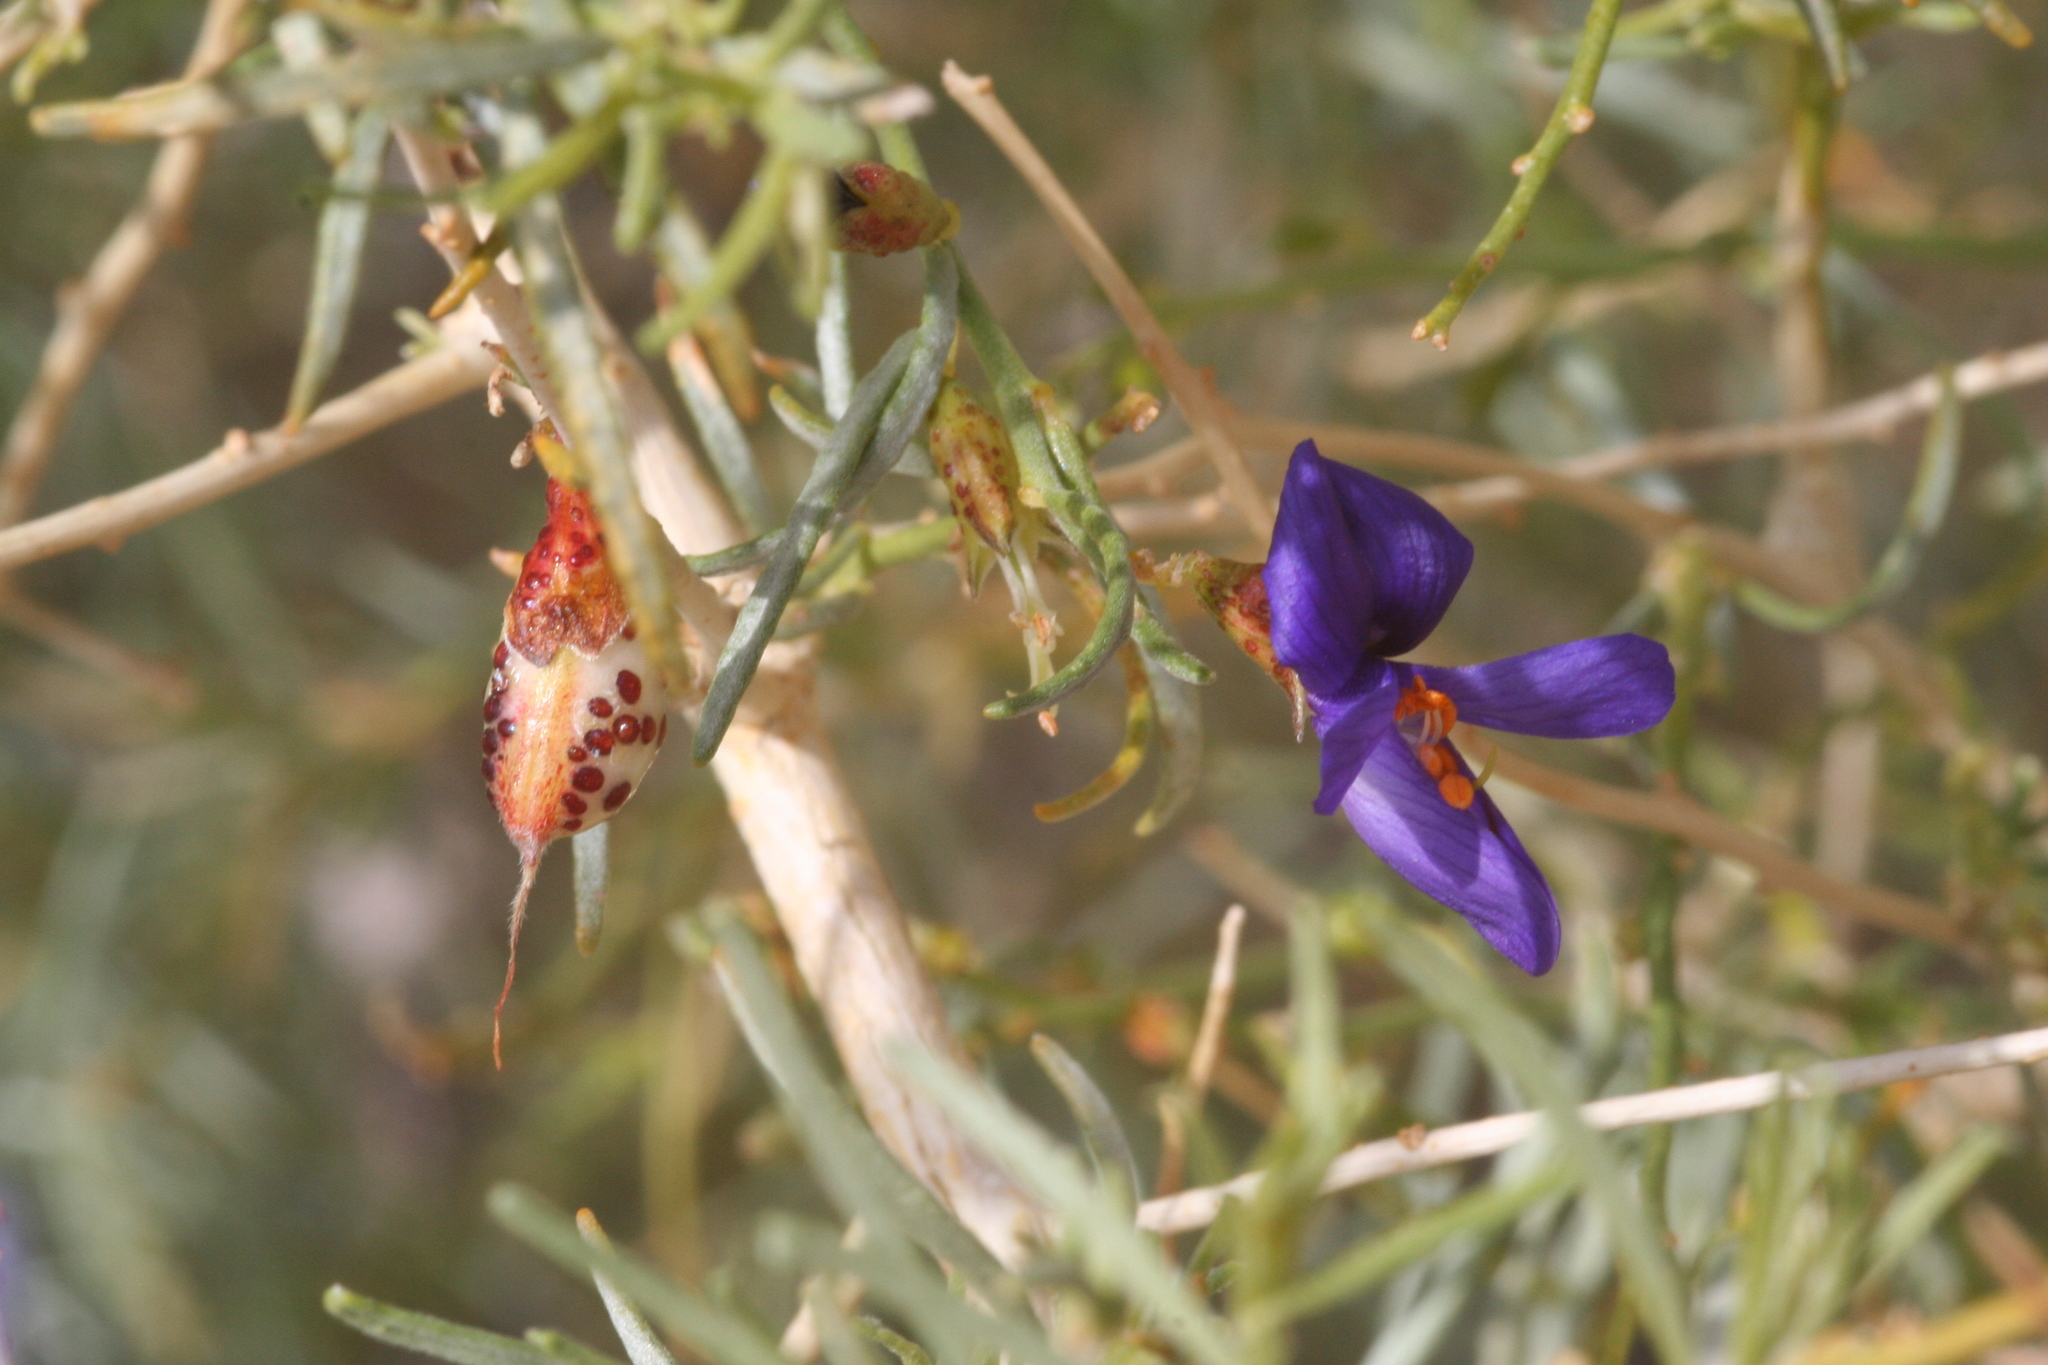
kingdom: Plantae
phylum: Tracheophyta
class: Magnoliopsida
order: Fabales
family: Fabaceae
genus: Psorothamnus
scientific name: Psorothamnus schottii
